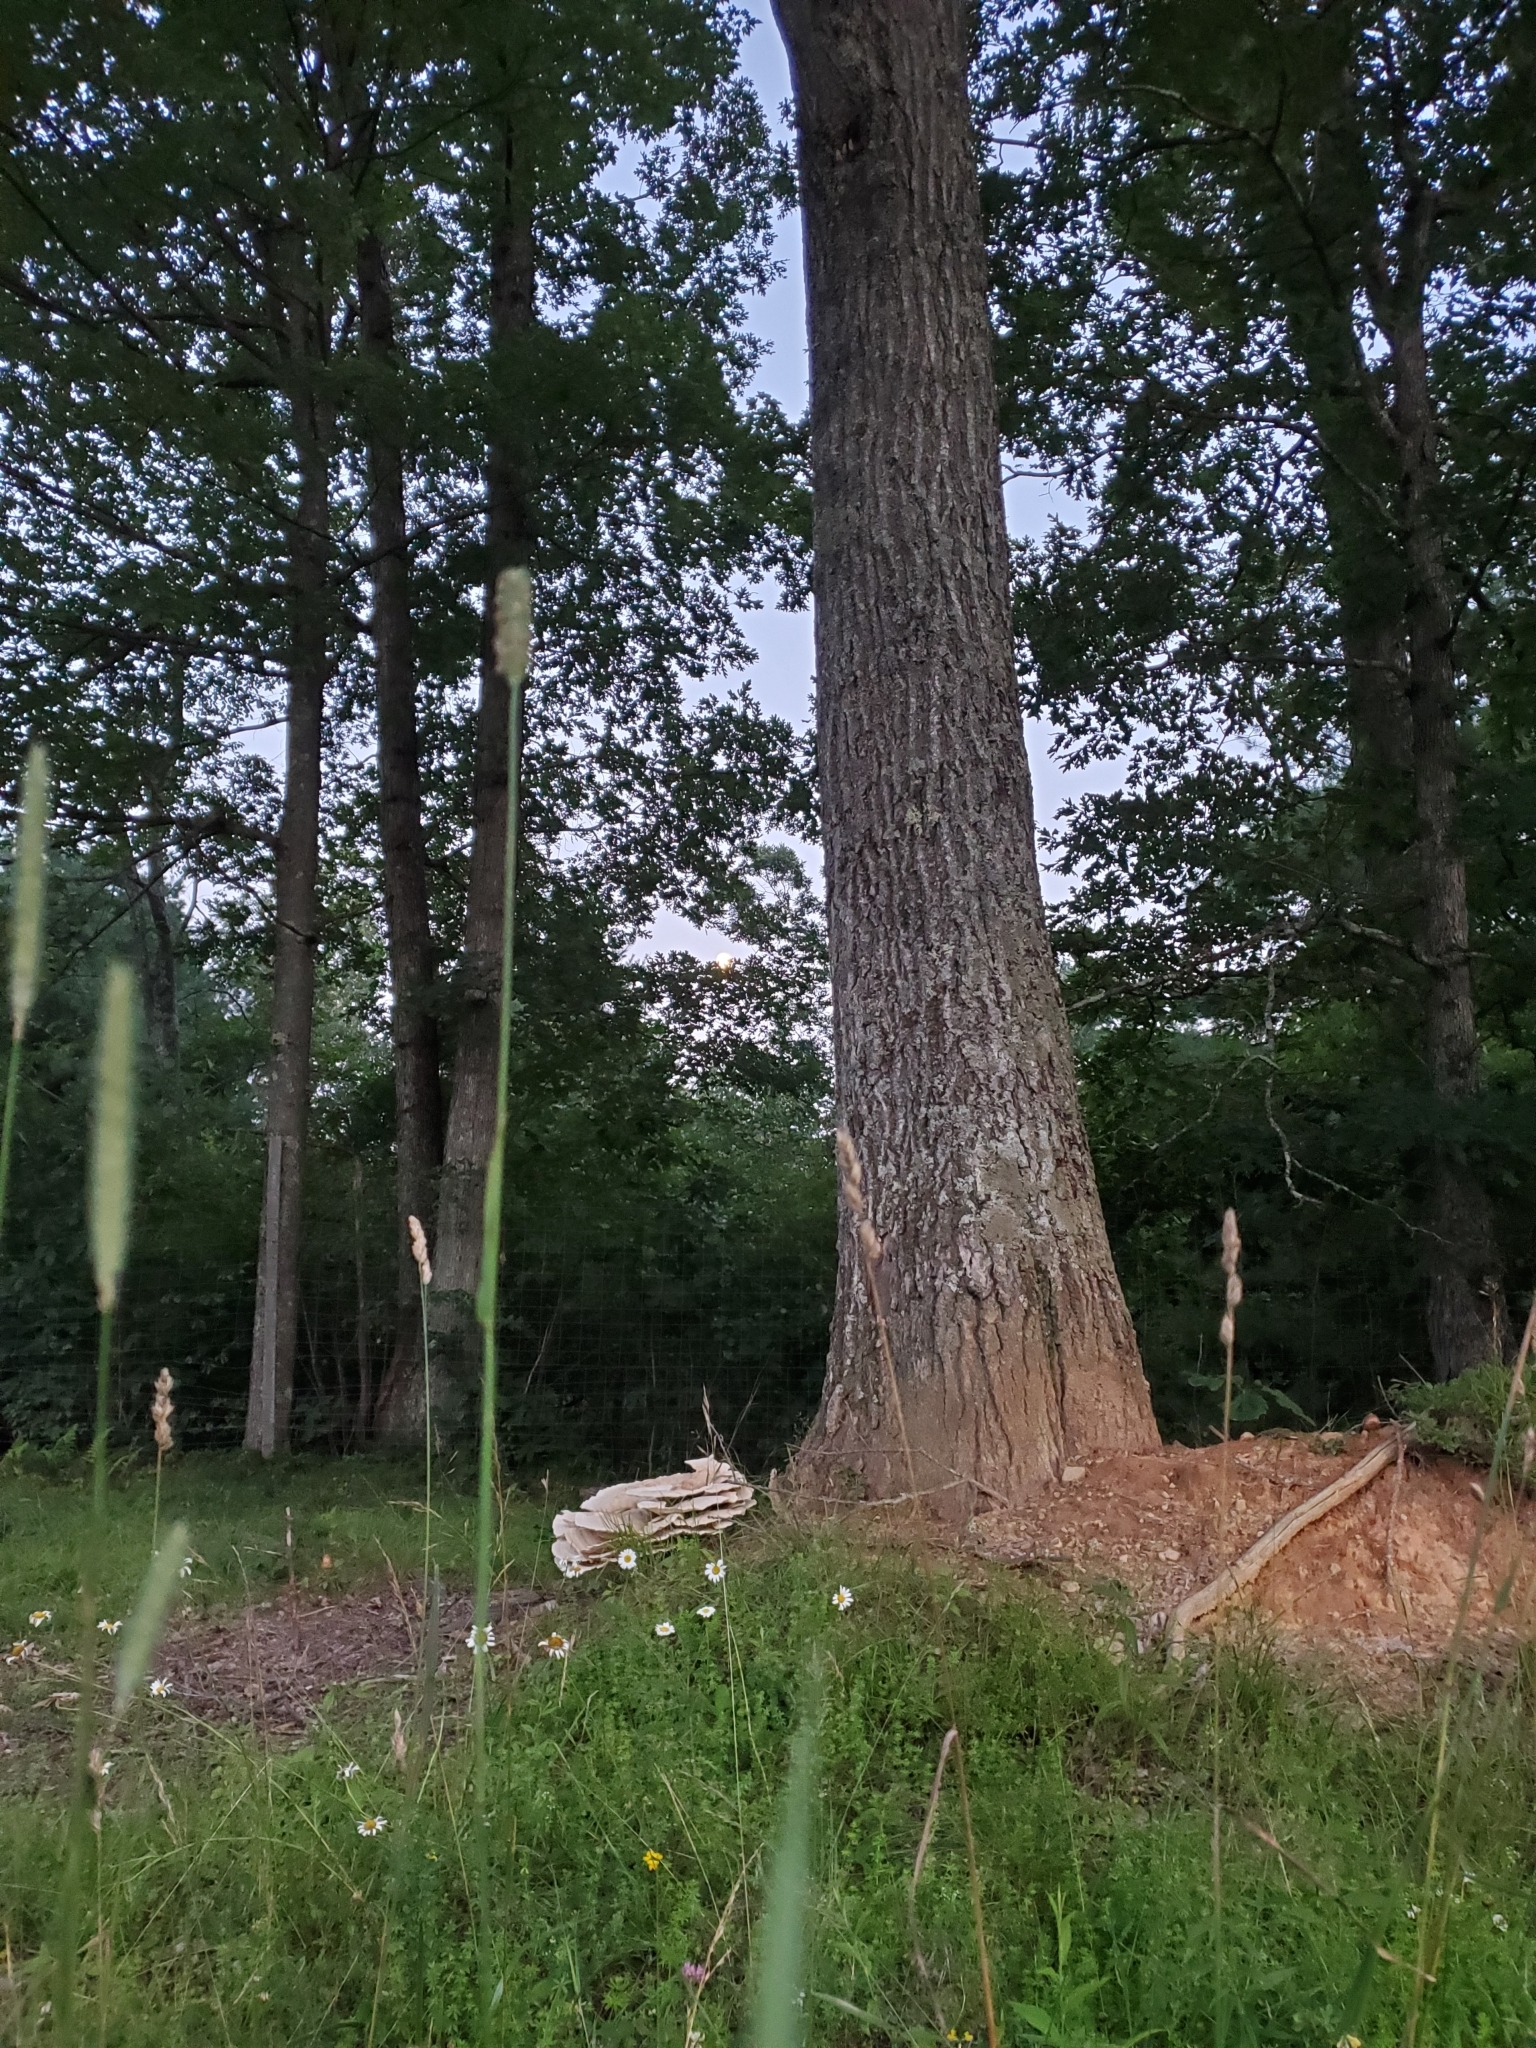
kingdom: Fungi
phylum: Basidiomycota
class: Agaricomycetes
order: Russulales
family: Bondarzewiaceae
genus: Bondarzewia
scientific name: Bondarzewia berkeleyi
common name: Berkeley's polypore
